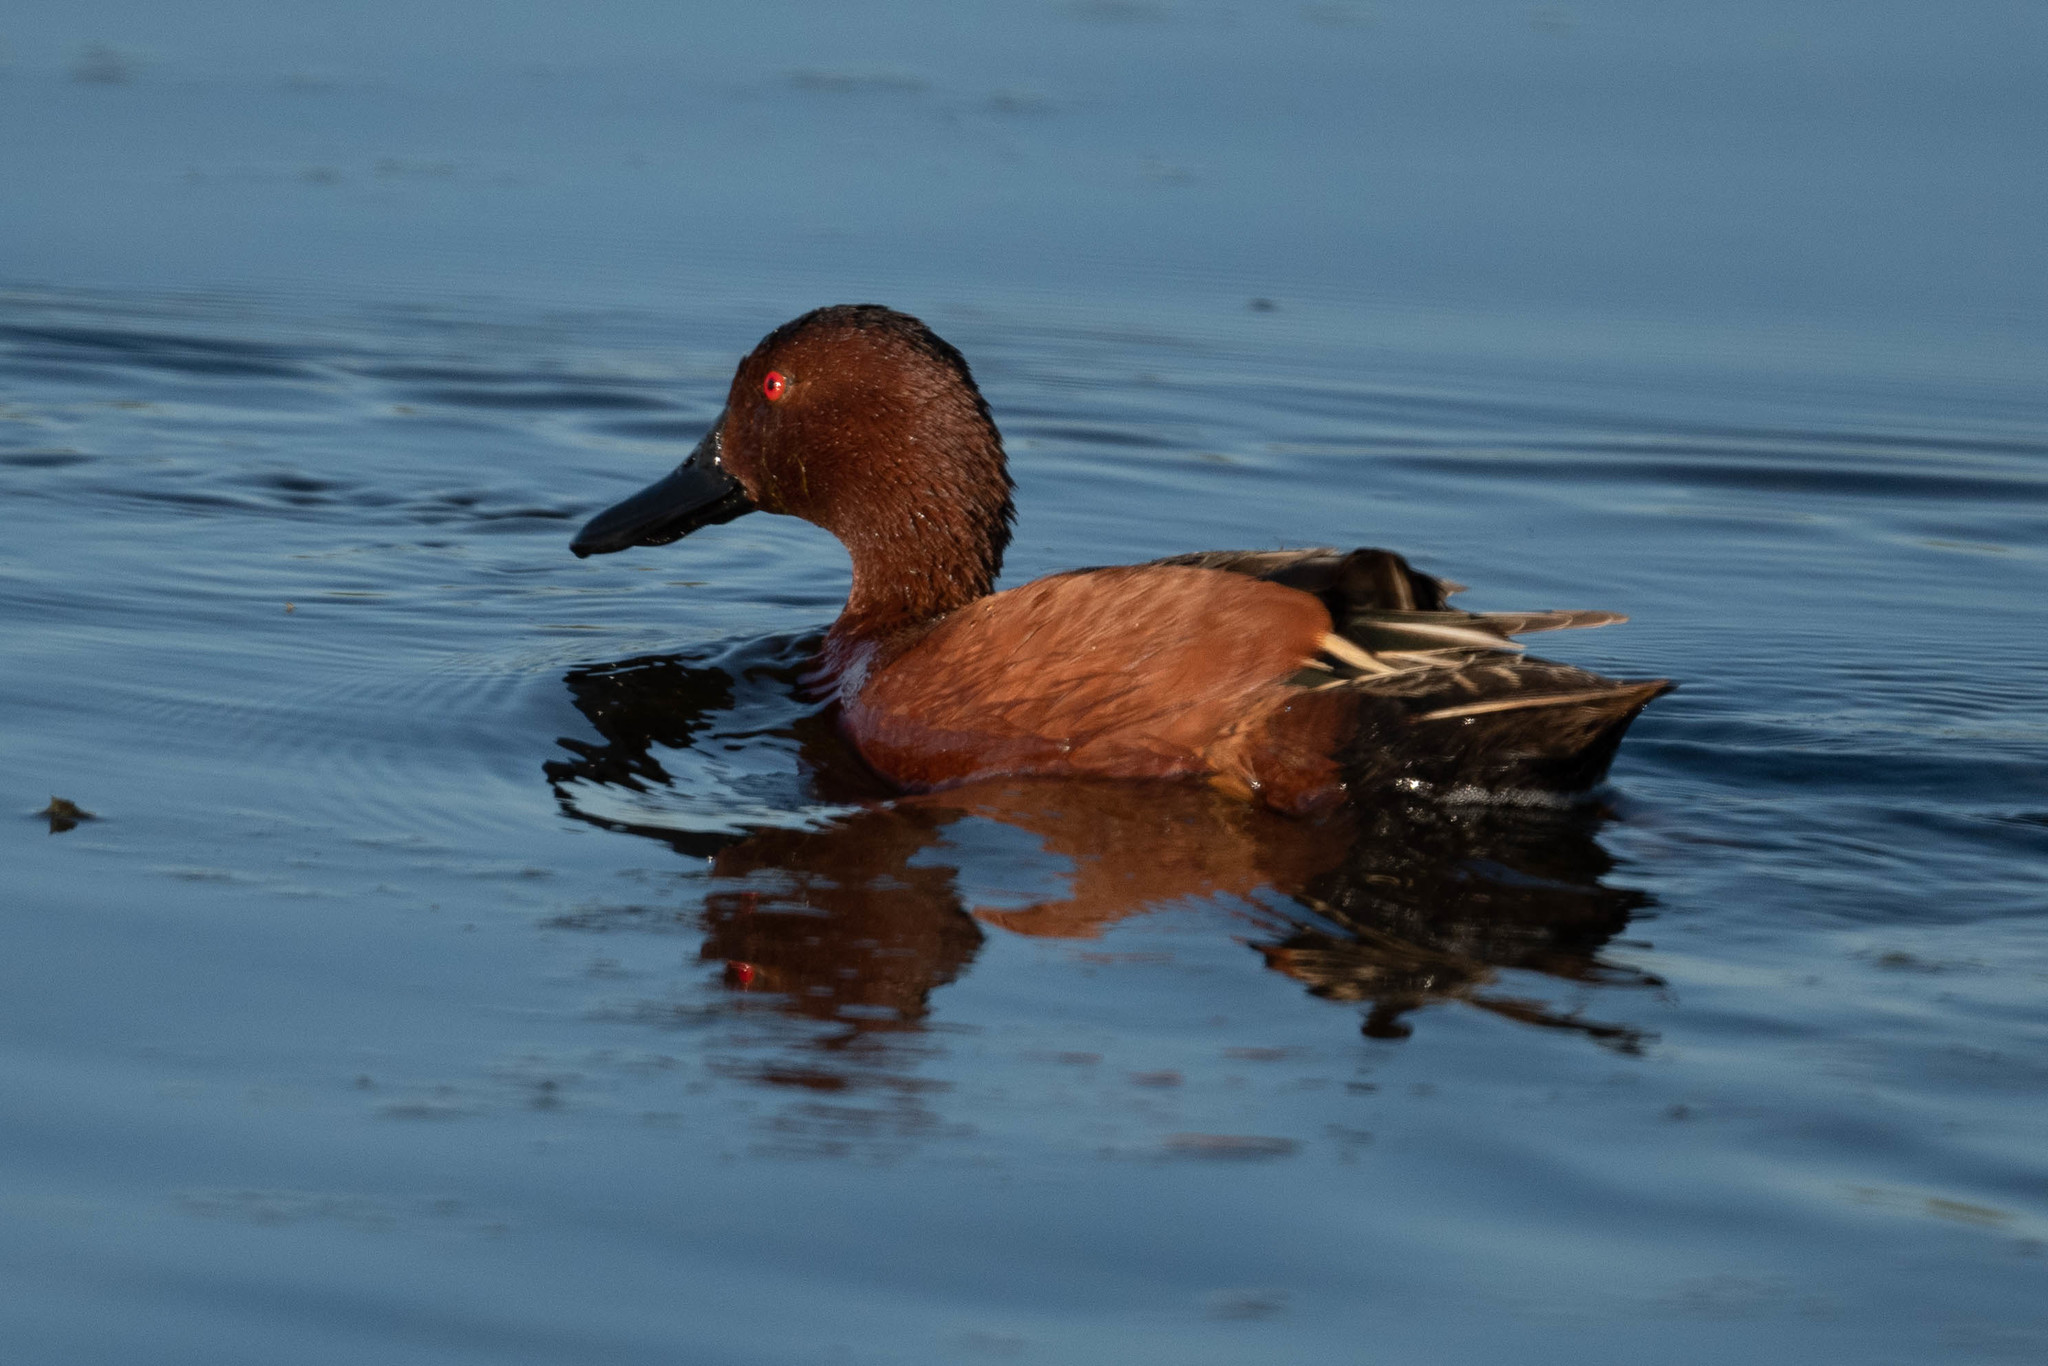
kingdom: Animalia
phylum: Chordata
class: Aves
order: Anseriformes
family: Anatidae
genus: Spatula
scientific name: Spatula cyanoptera
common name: Cinnamon teal
